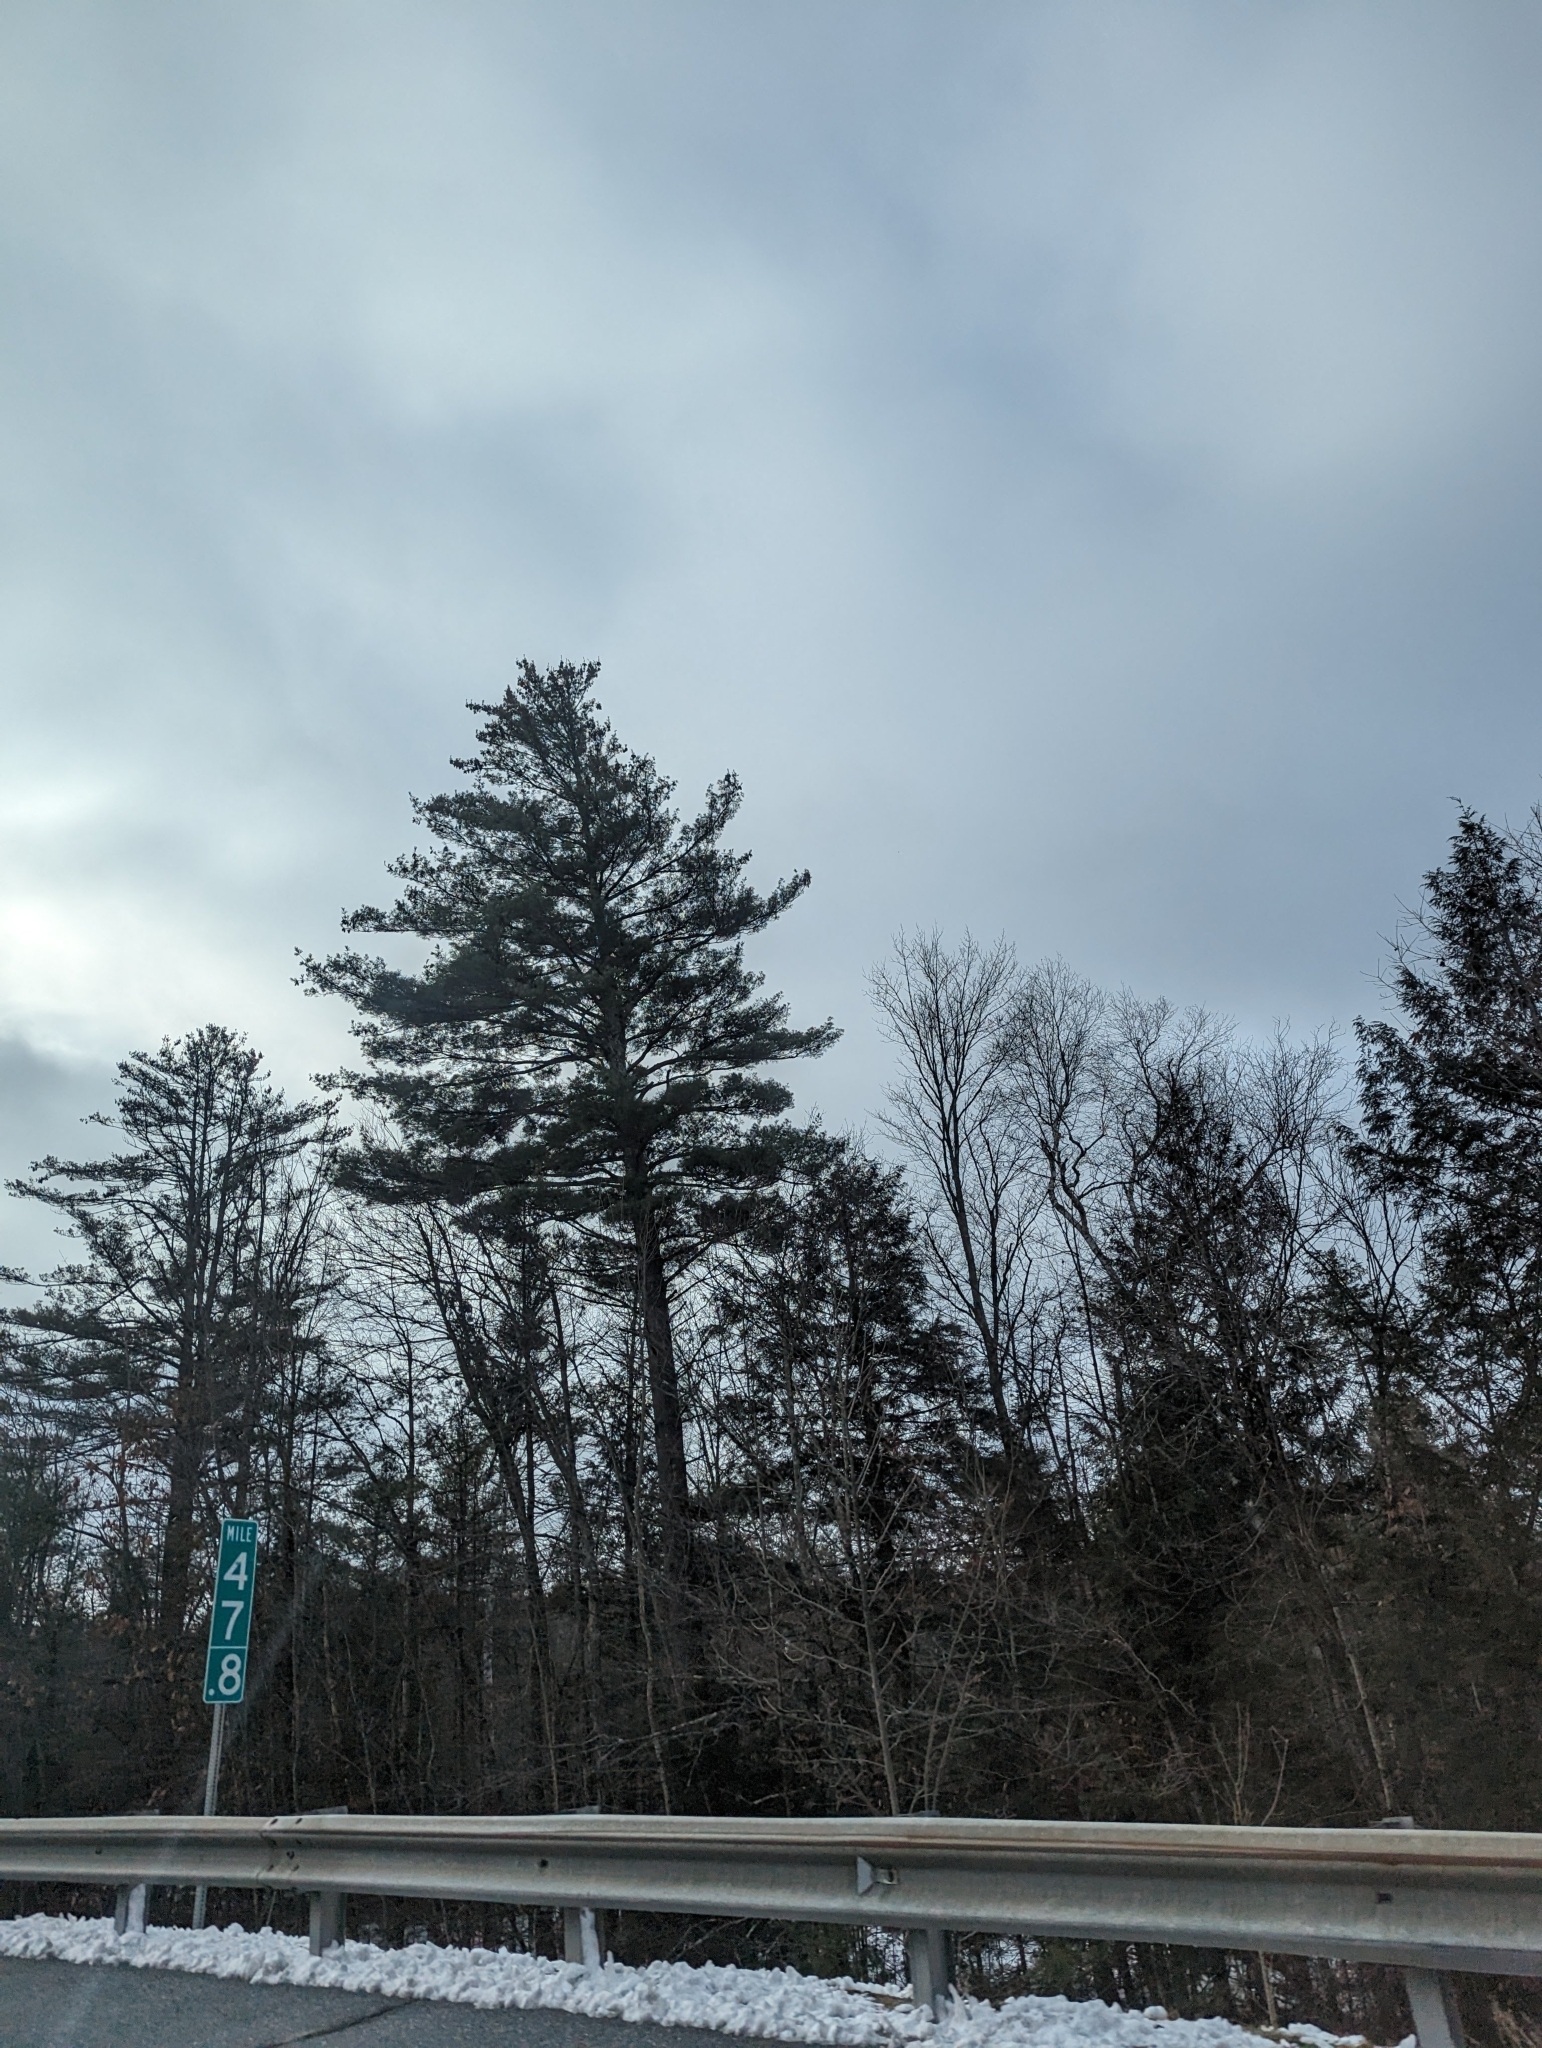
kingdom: Plantae
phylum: Tracheophyta
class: Pinopsida
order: Pinales
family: Pinaceae
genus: Pinus
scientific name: Pinus strobus
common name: Weymouth pine
